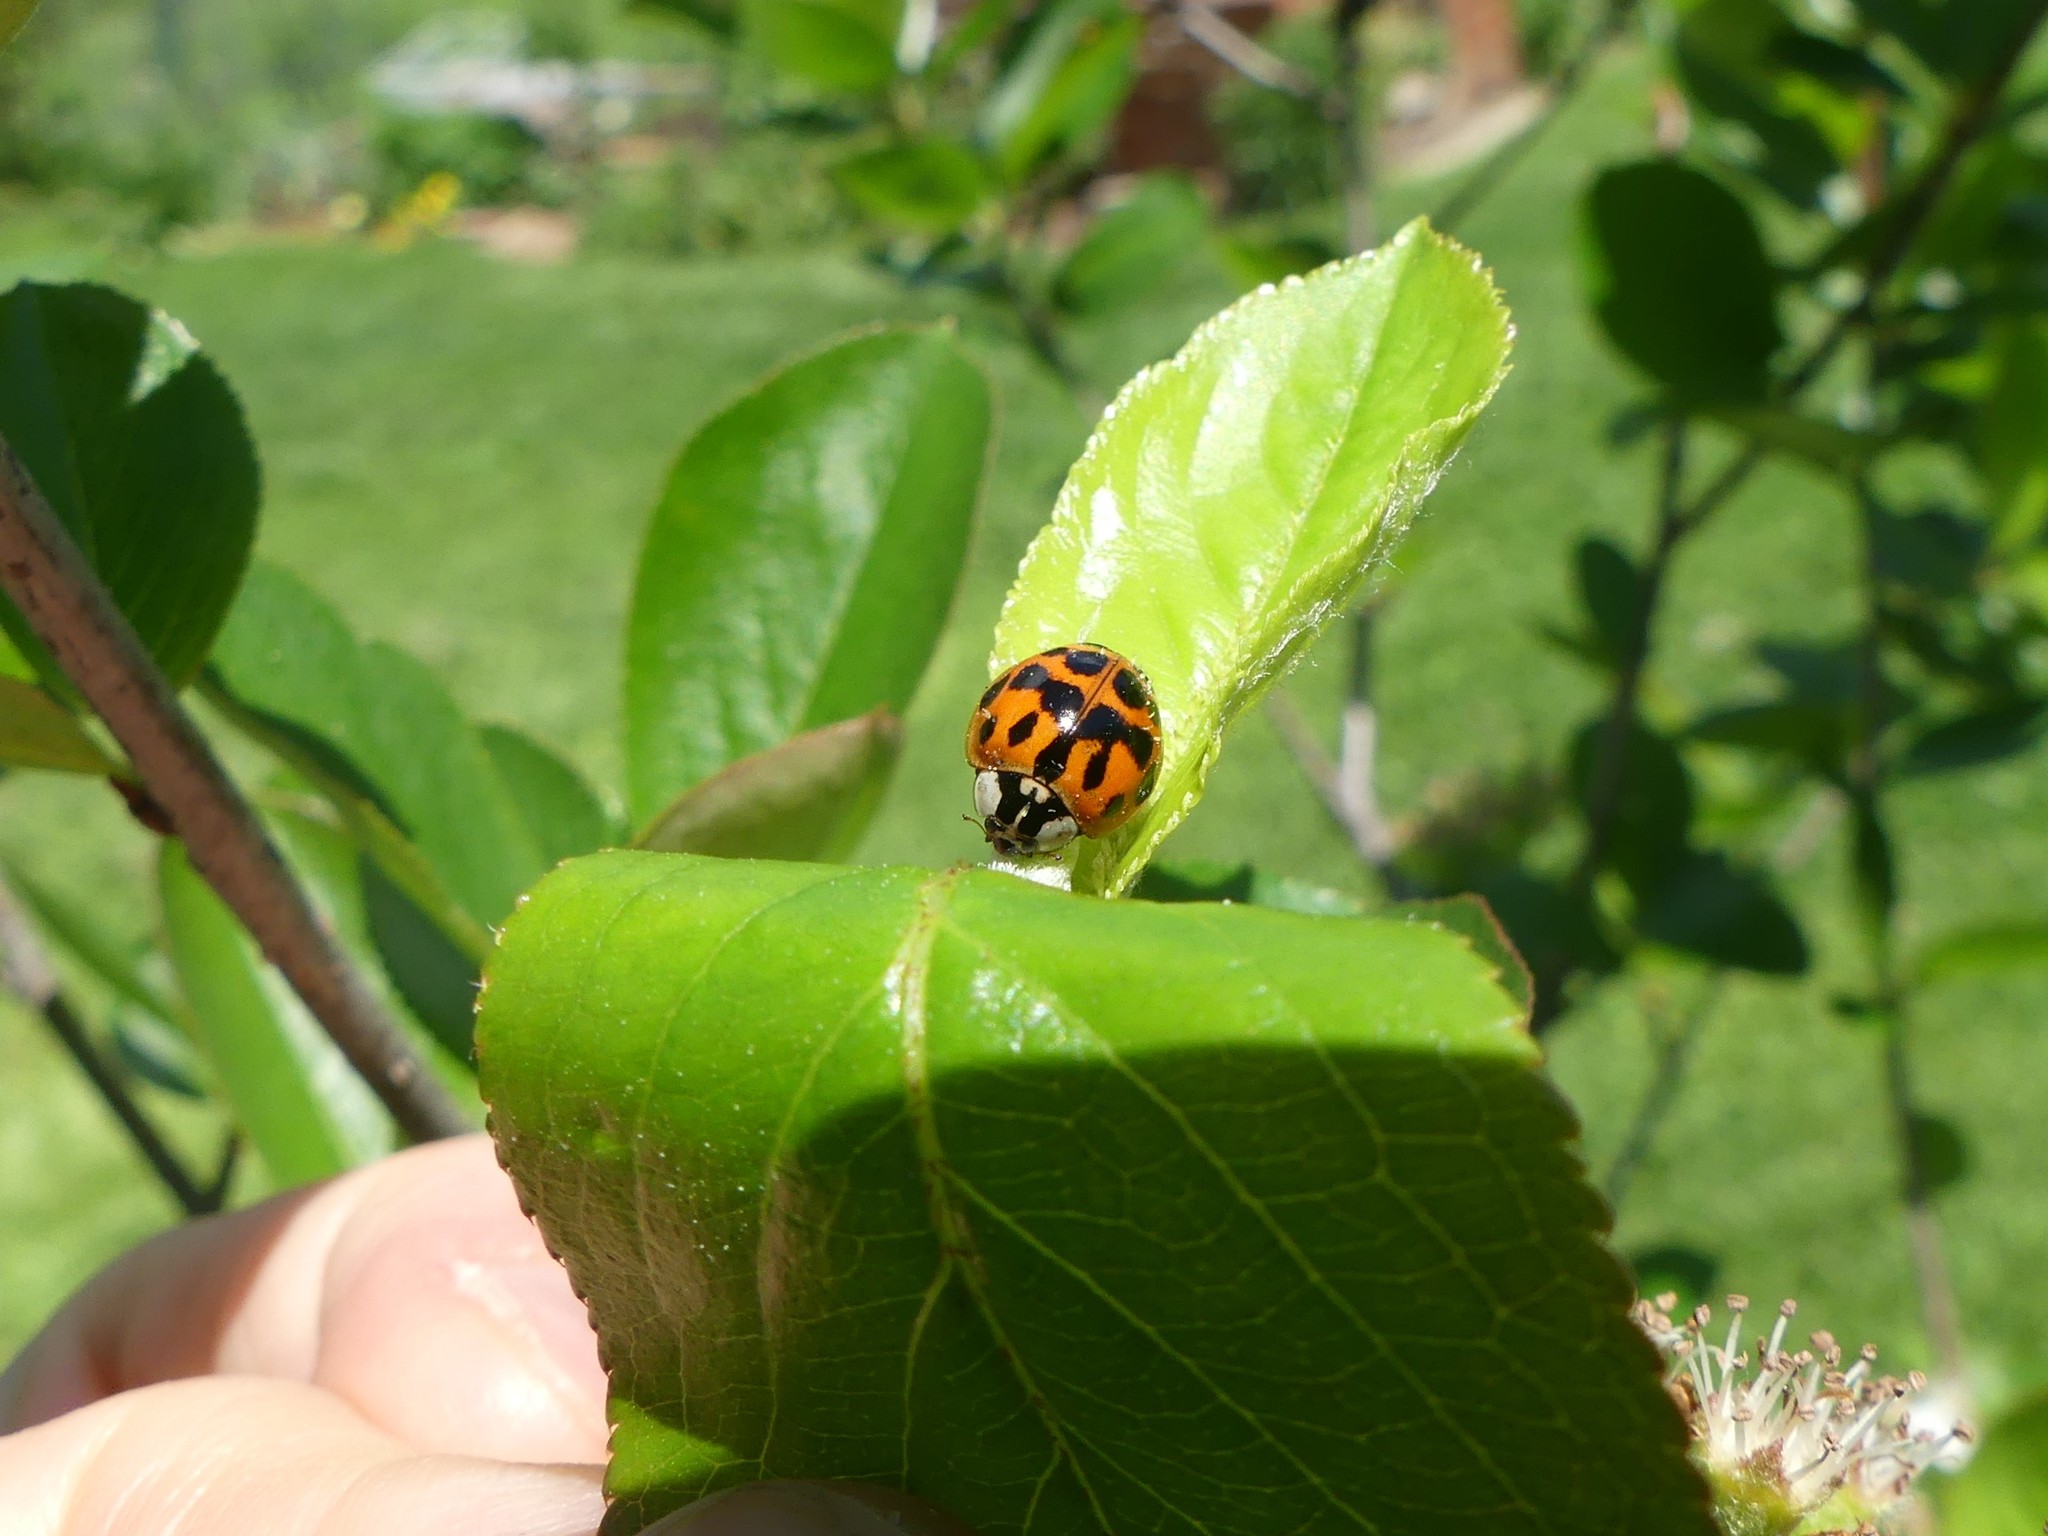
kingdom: Animalia
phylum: Arthropoda
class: Insecta
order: Coleoptera
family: Coccinellidae
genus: Harmonia
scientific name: Harmonia axyridis
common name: Harlequin ladybird
